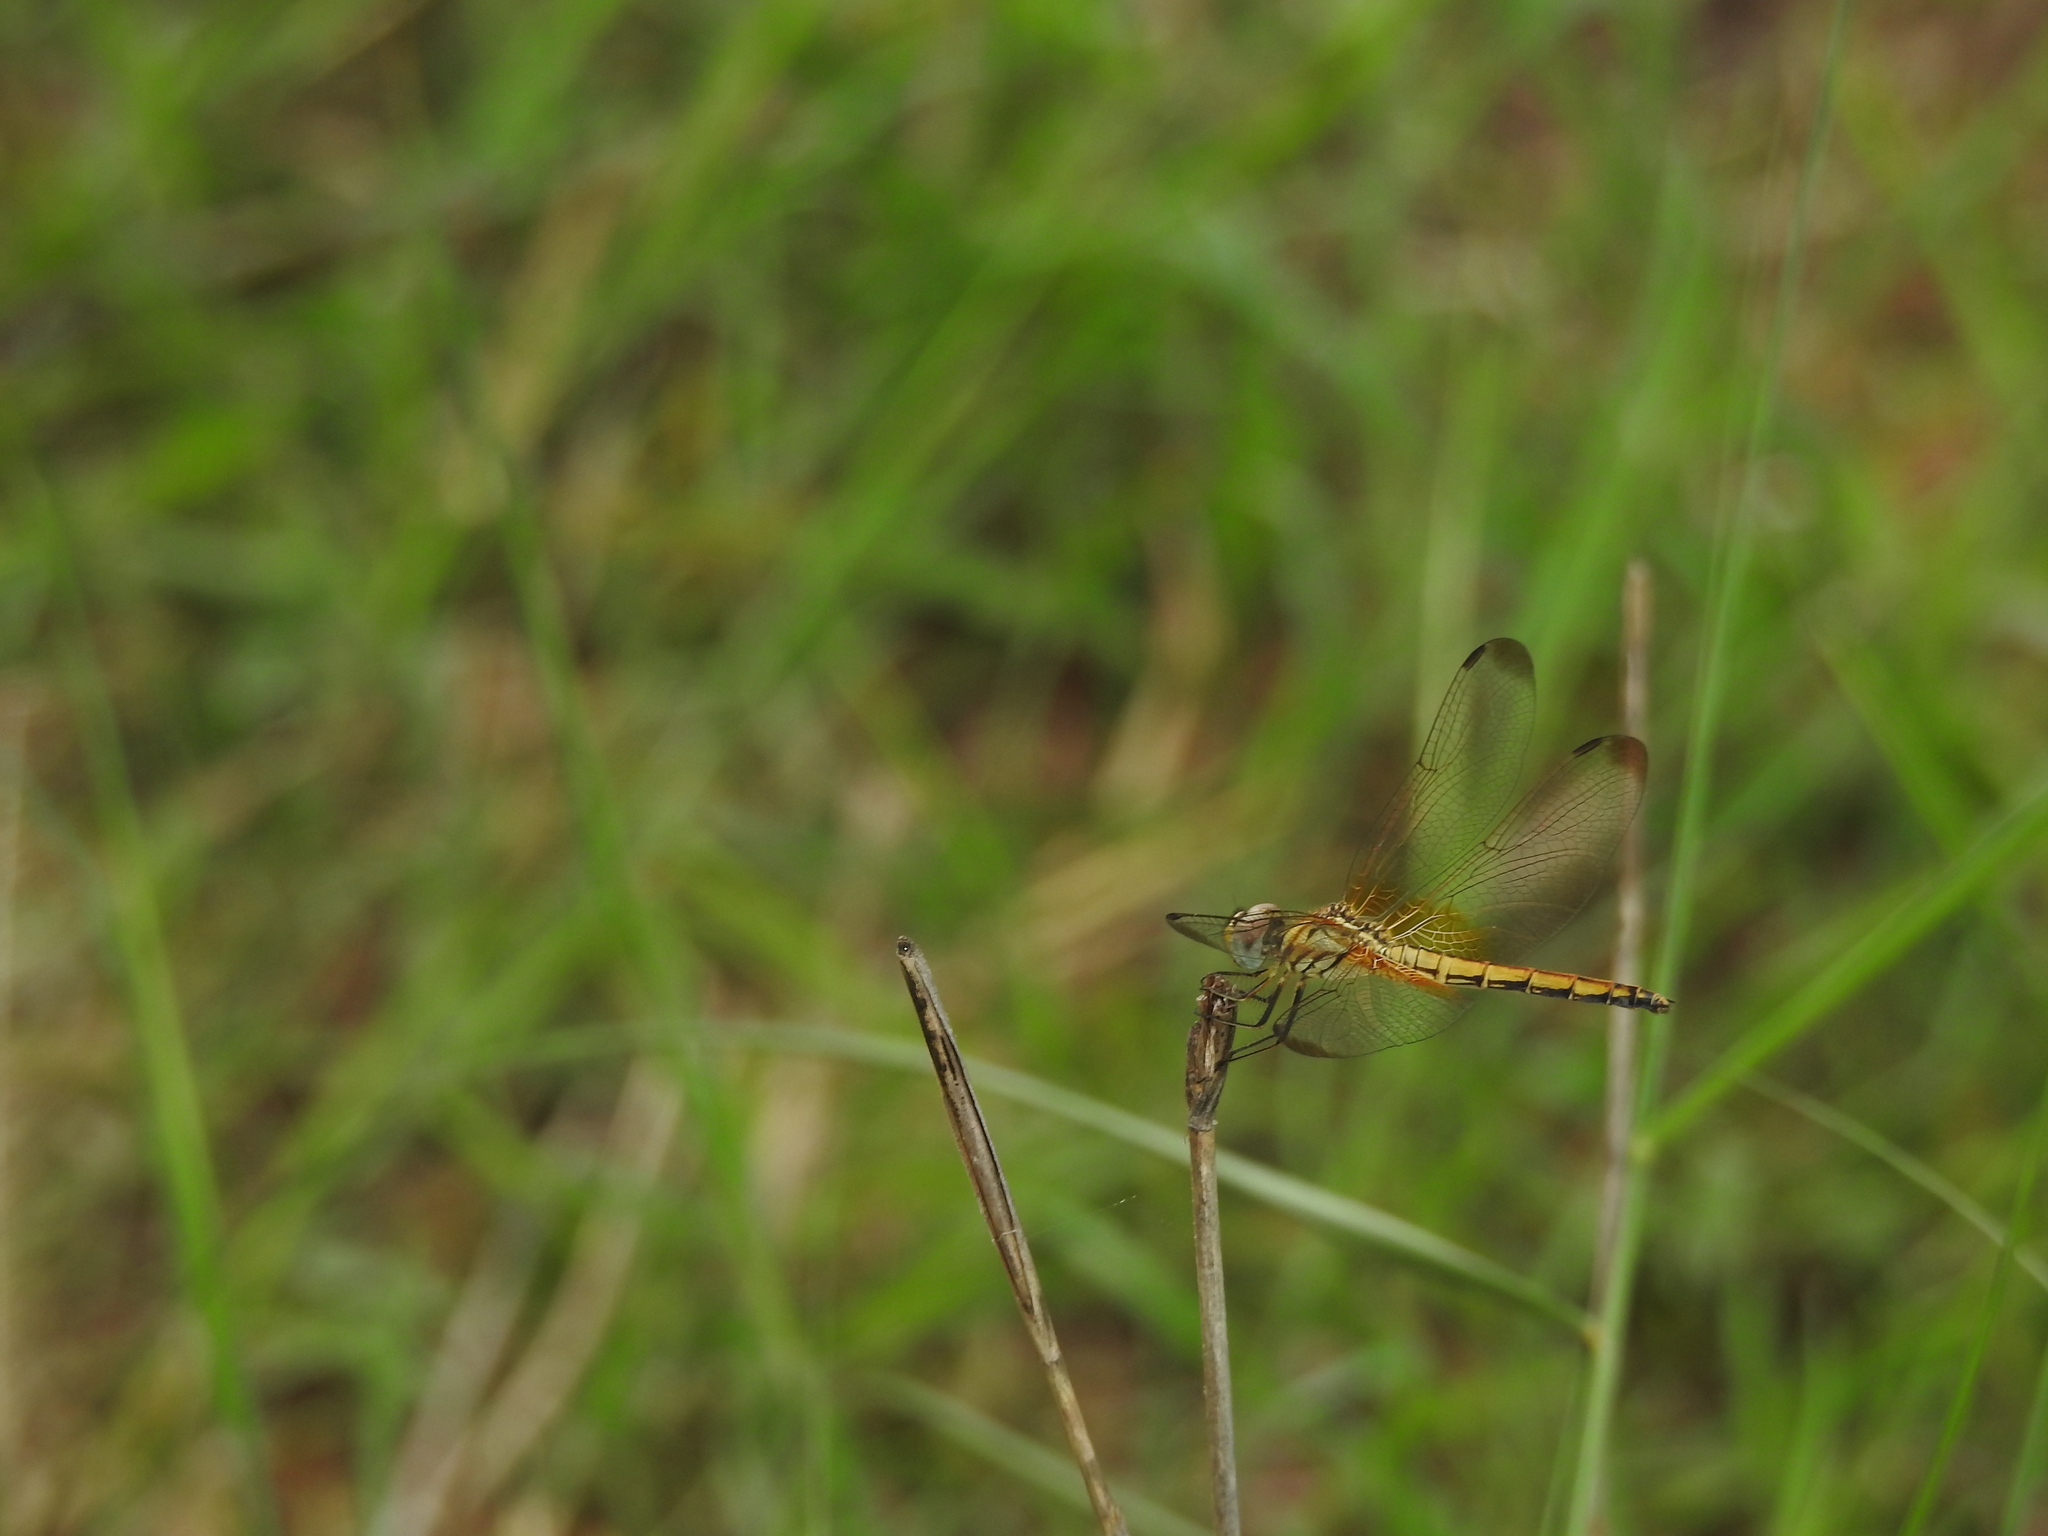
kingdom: Animalia
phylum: Arthropoda
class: Insecta
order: Odonata
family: Libellulidae
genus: Trithemis
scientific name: Trithemis aurora
